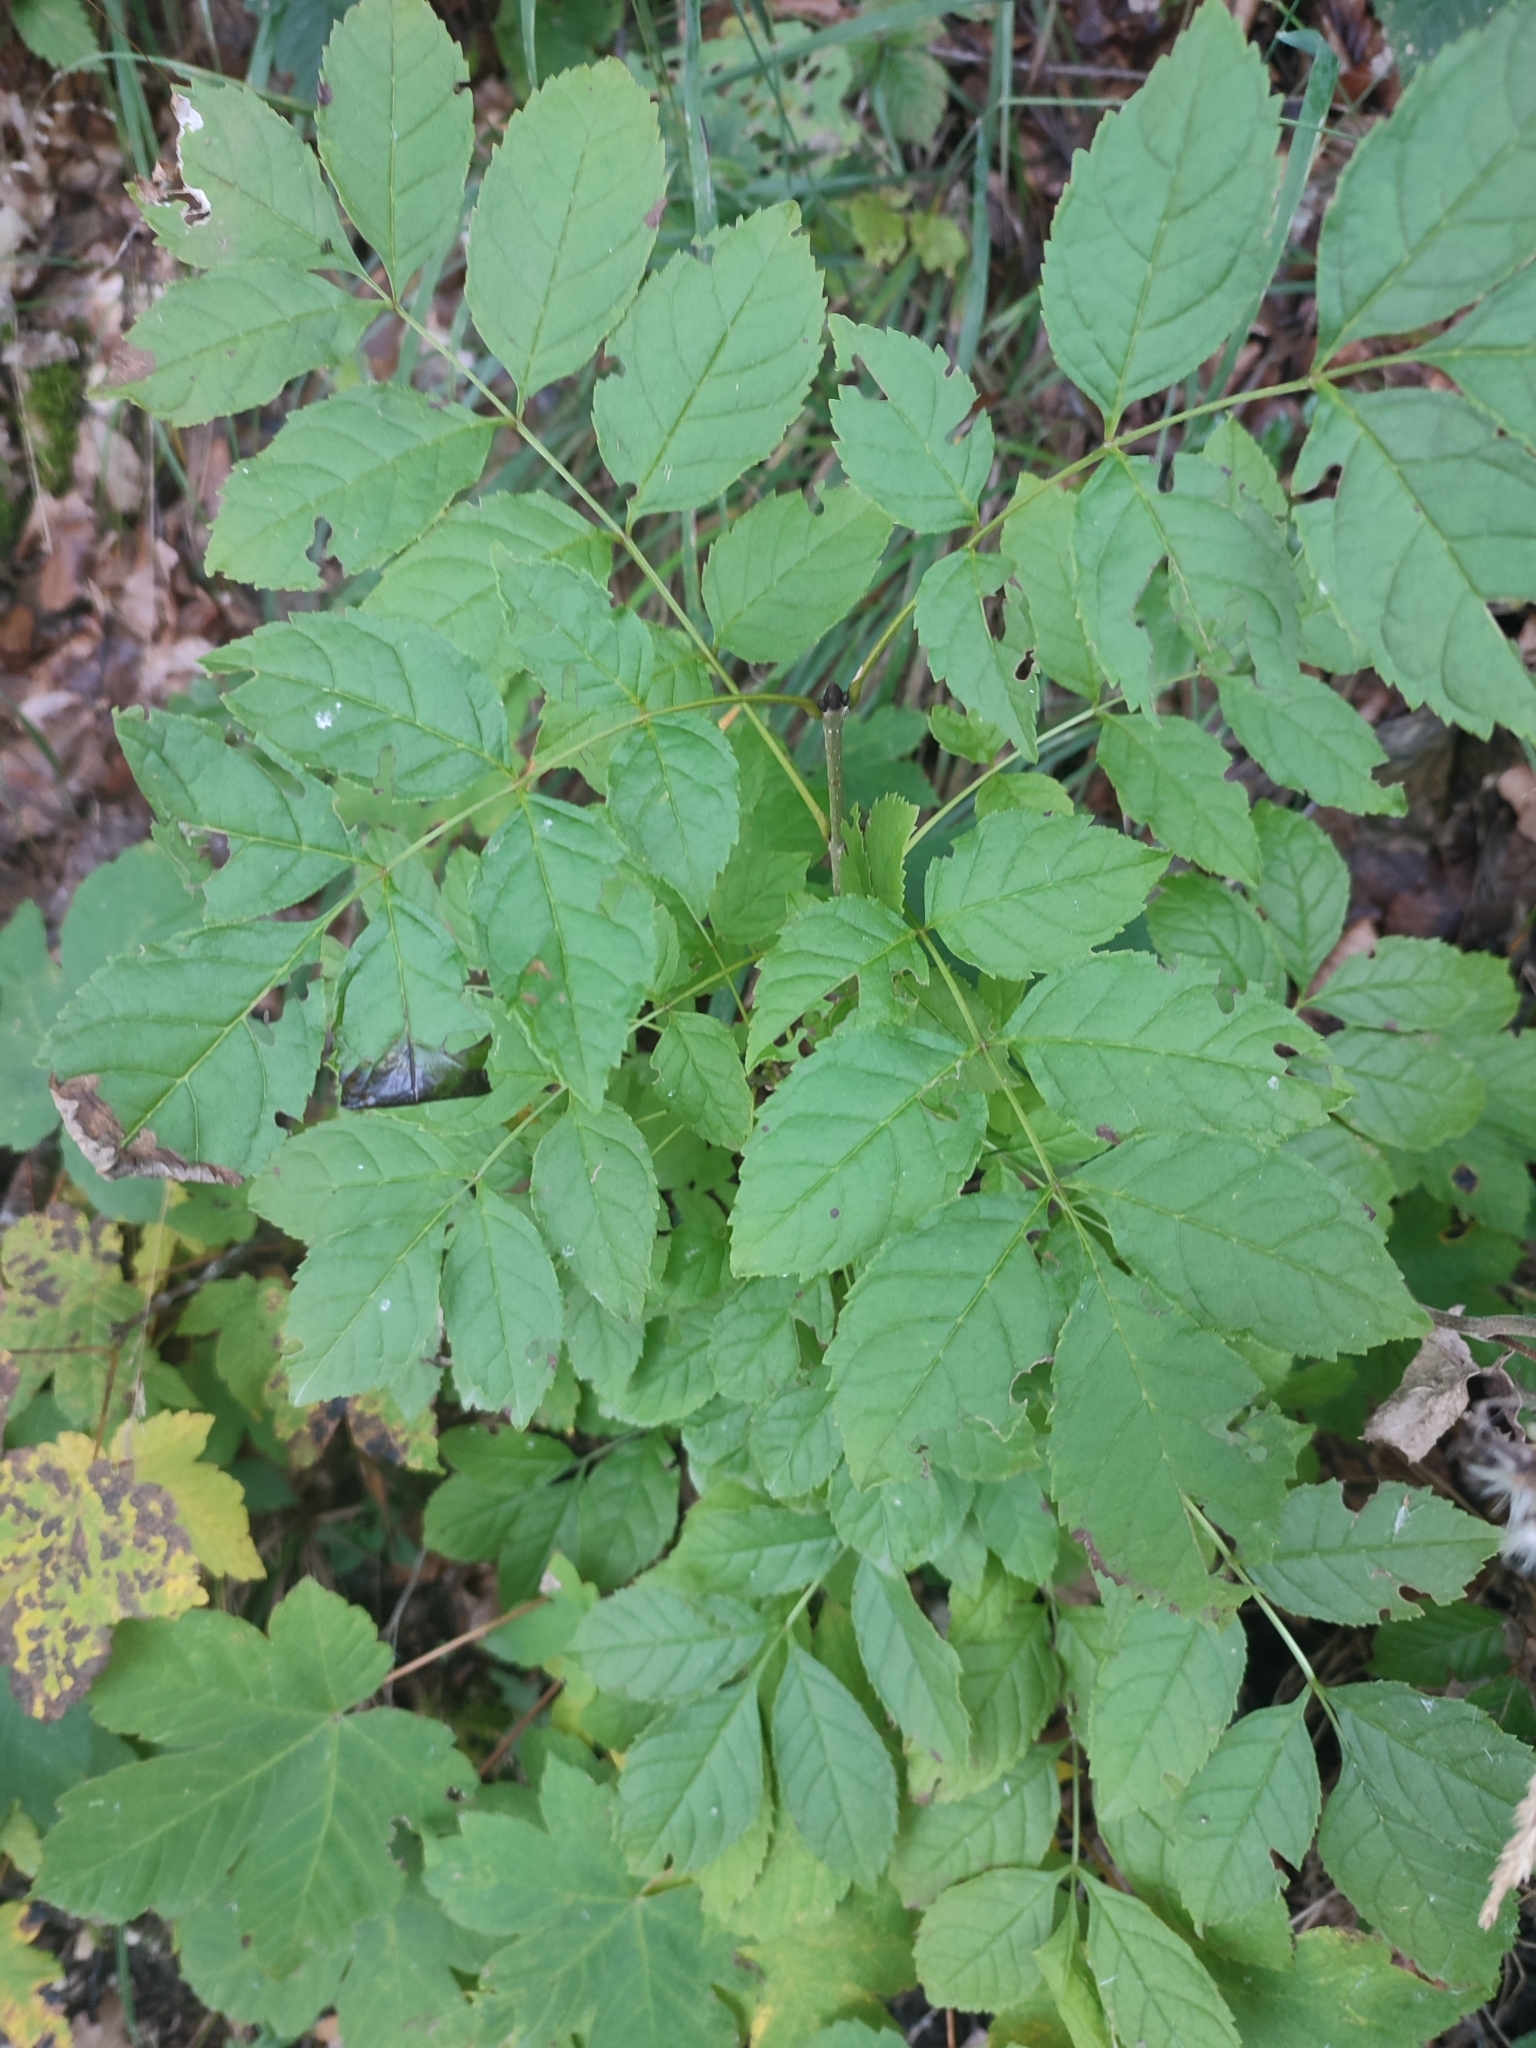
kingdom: Plantae
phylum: Tracheophyta
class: Magnoliopsida
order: Lamiales
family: Oleaceae
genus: Fraxinus
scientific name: Fraxinus excelsior
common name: European ash
